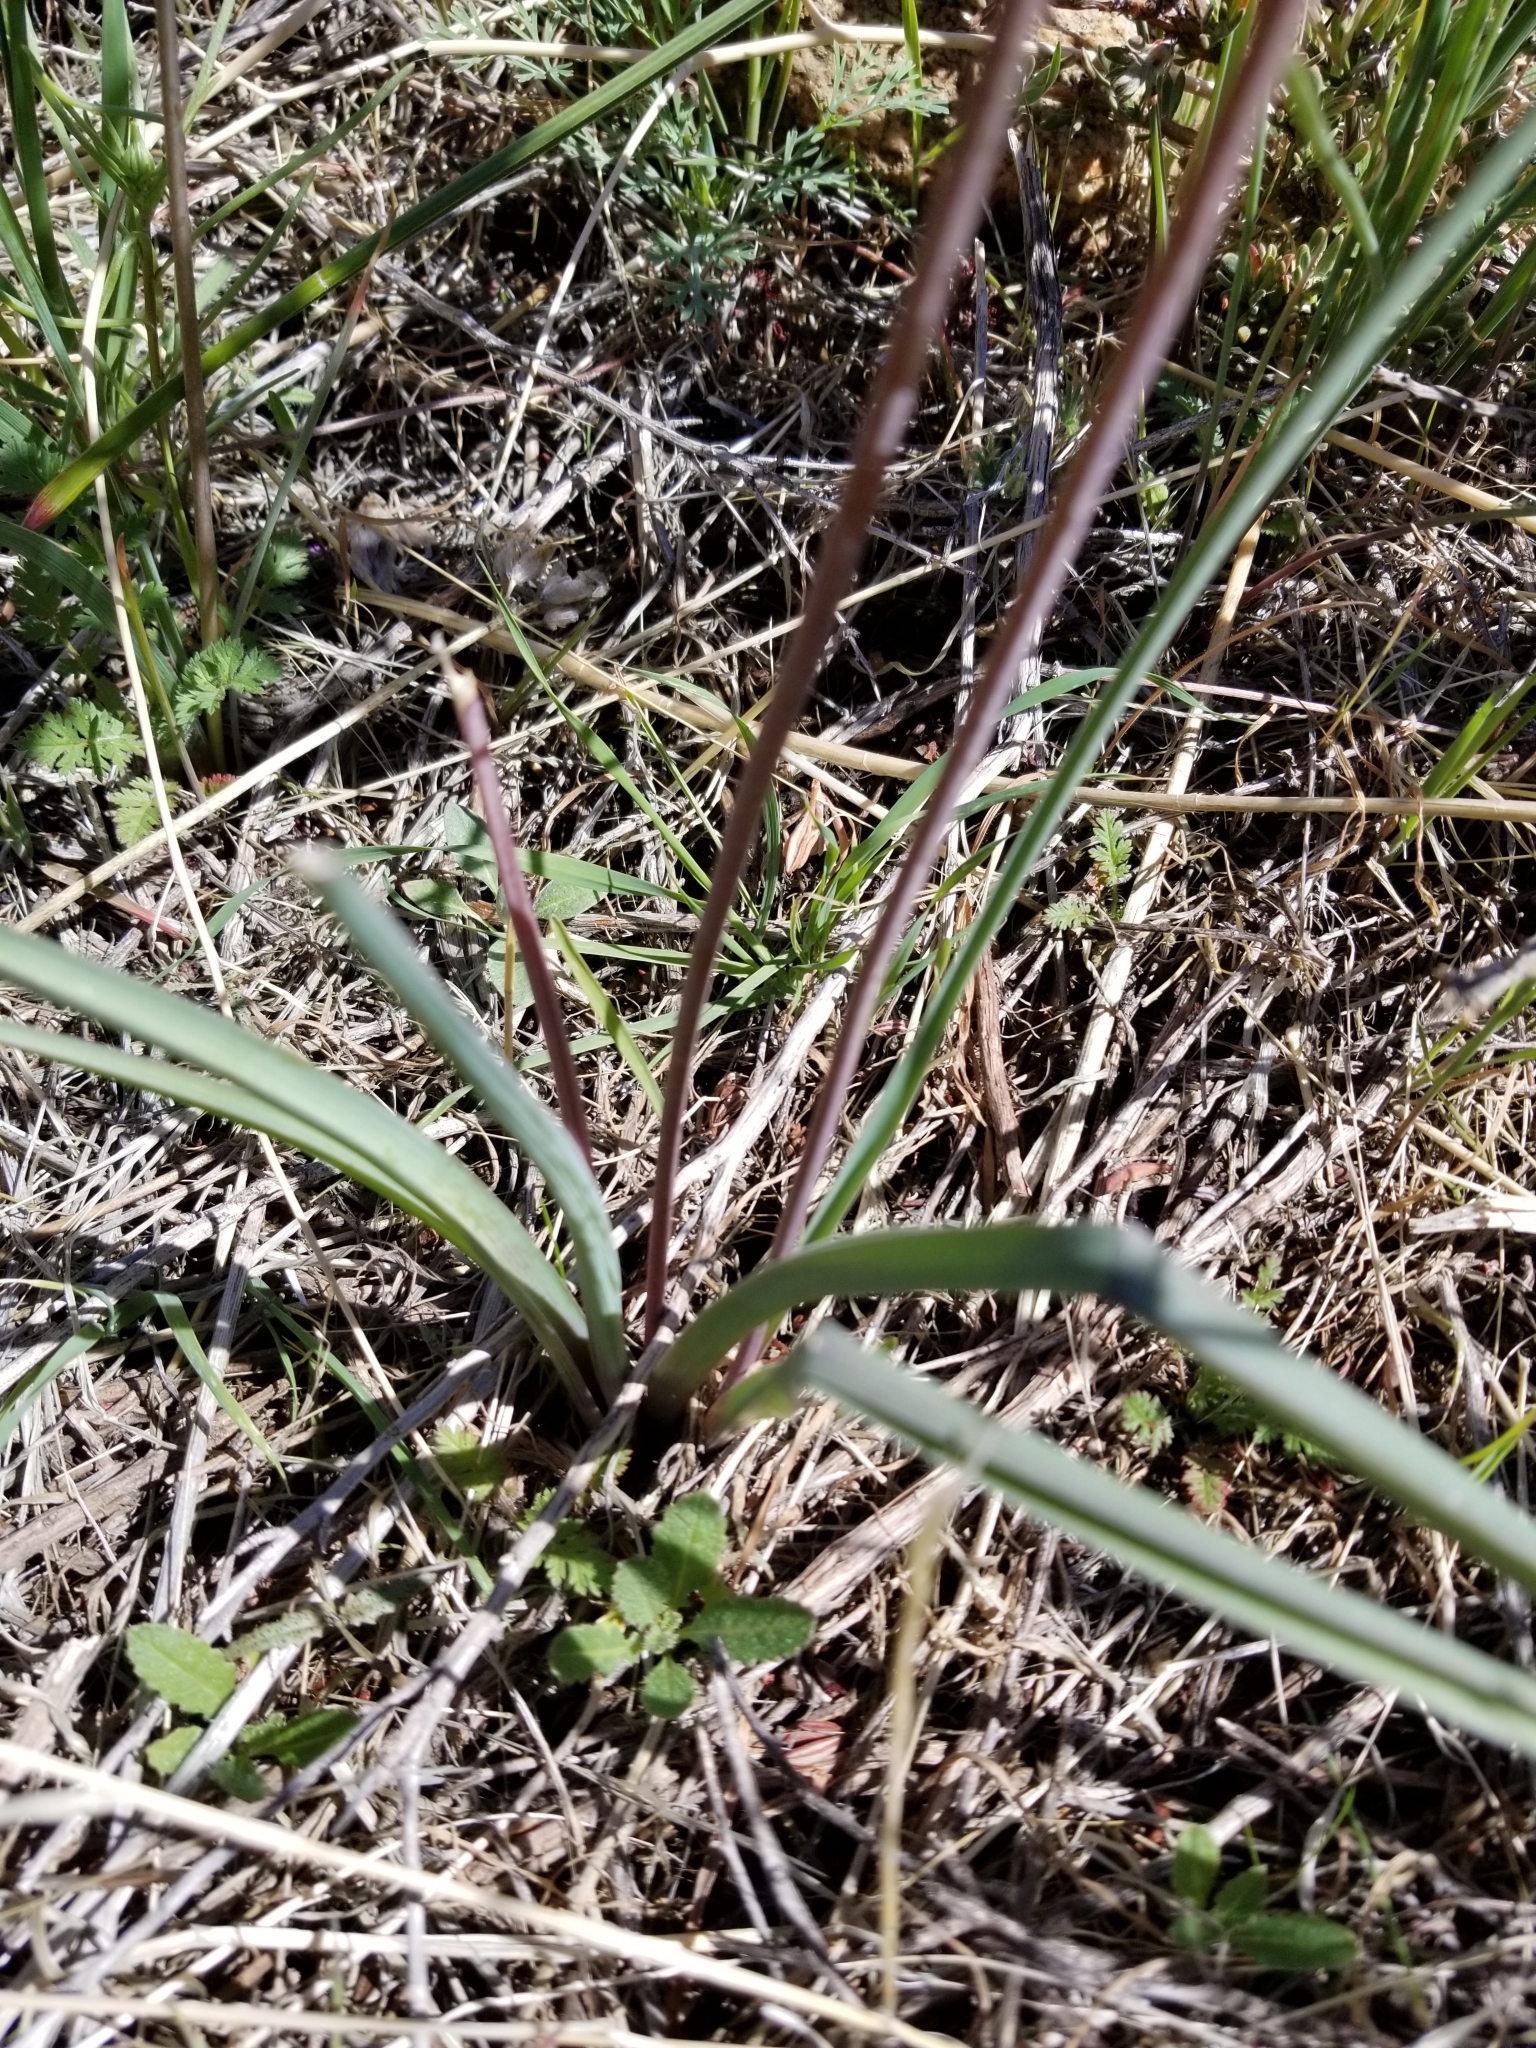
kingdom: Plantae
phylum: Tracheophyta
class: Liliopsida
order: Asparagales
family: Asparagaceae
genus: Dipterostemon
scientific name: Dipterostemon capitatus
